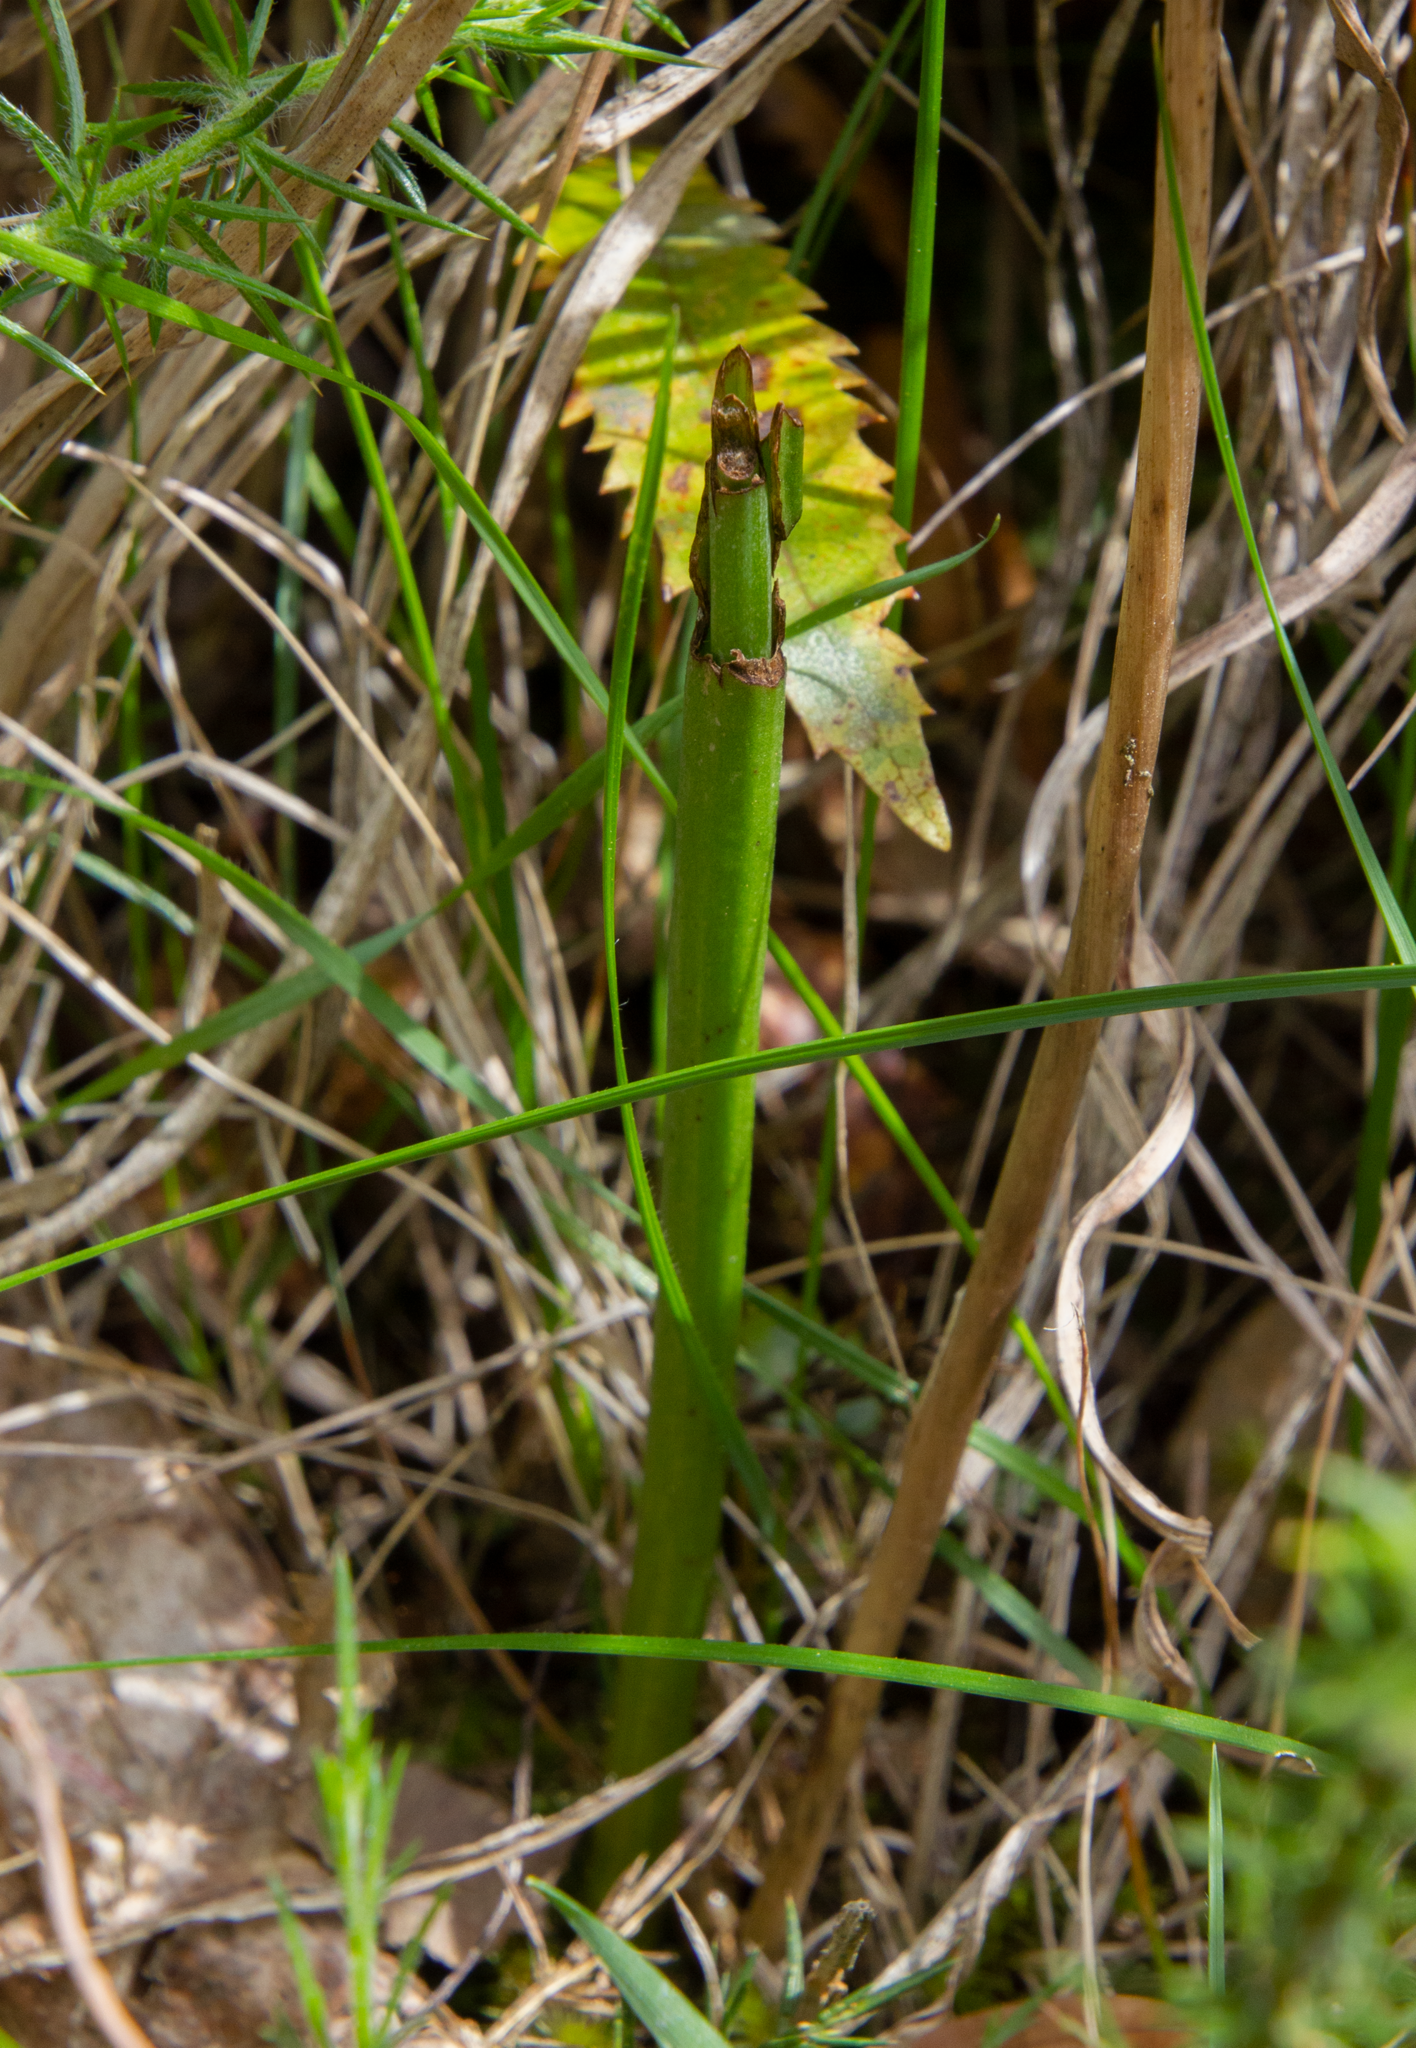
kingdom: Plantae
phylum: Tracheophyta
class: Liliopsida
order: Asparagales
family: Orchidaceae
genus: Thelymitra
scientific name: Thelymitra pauciflora
